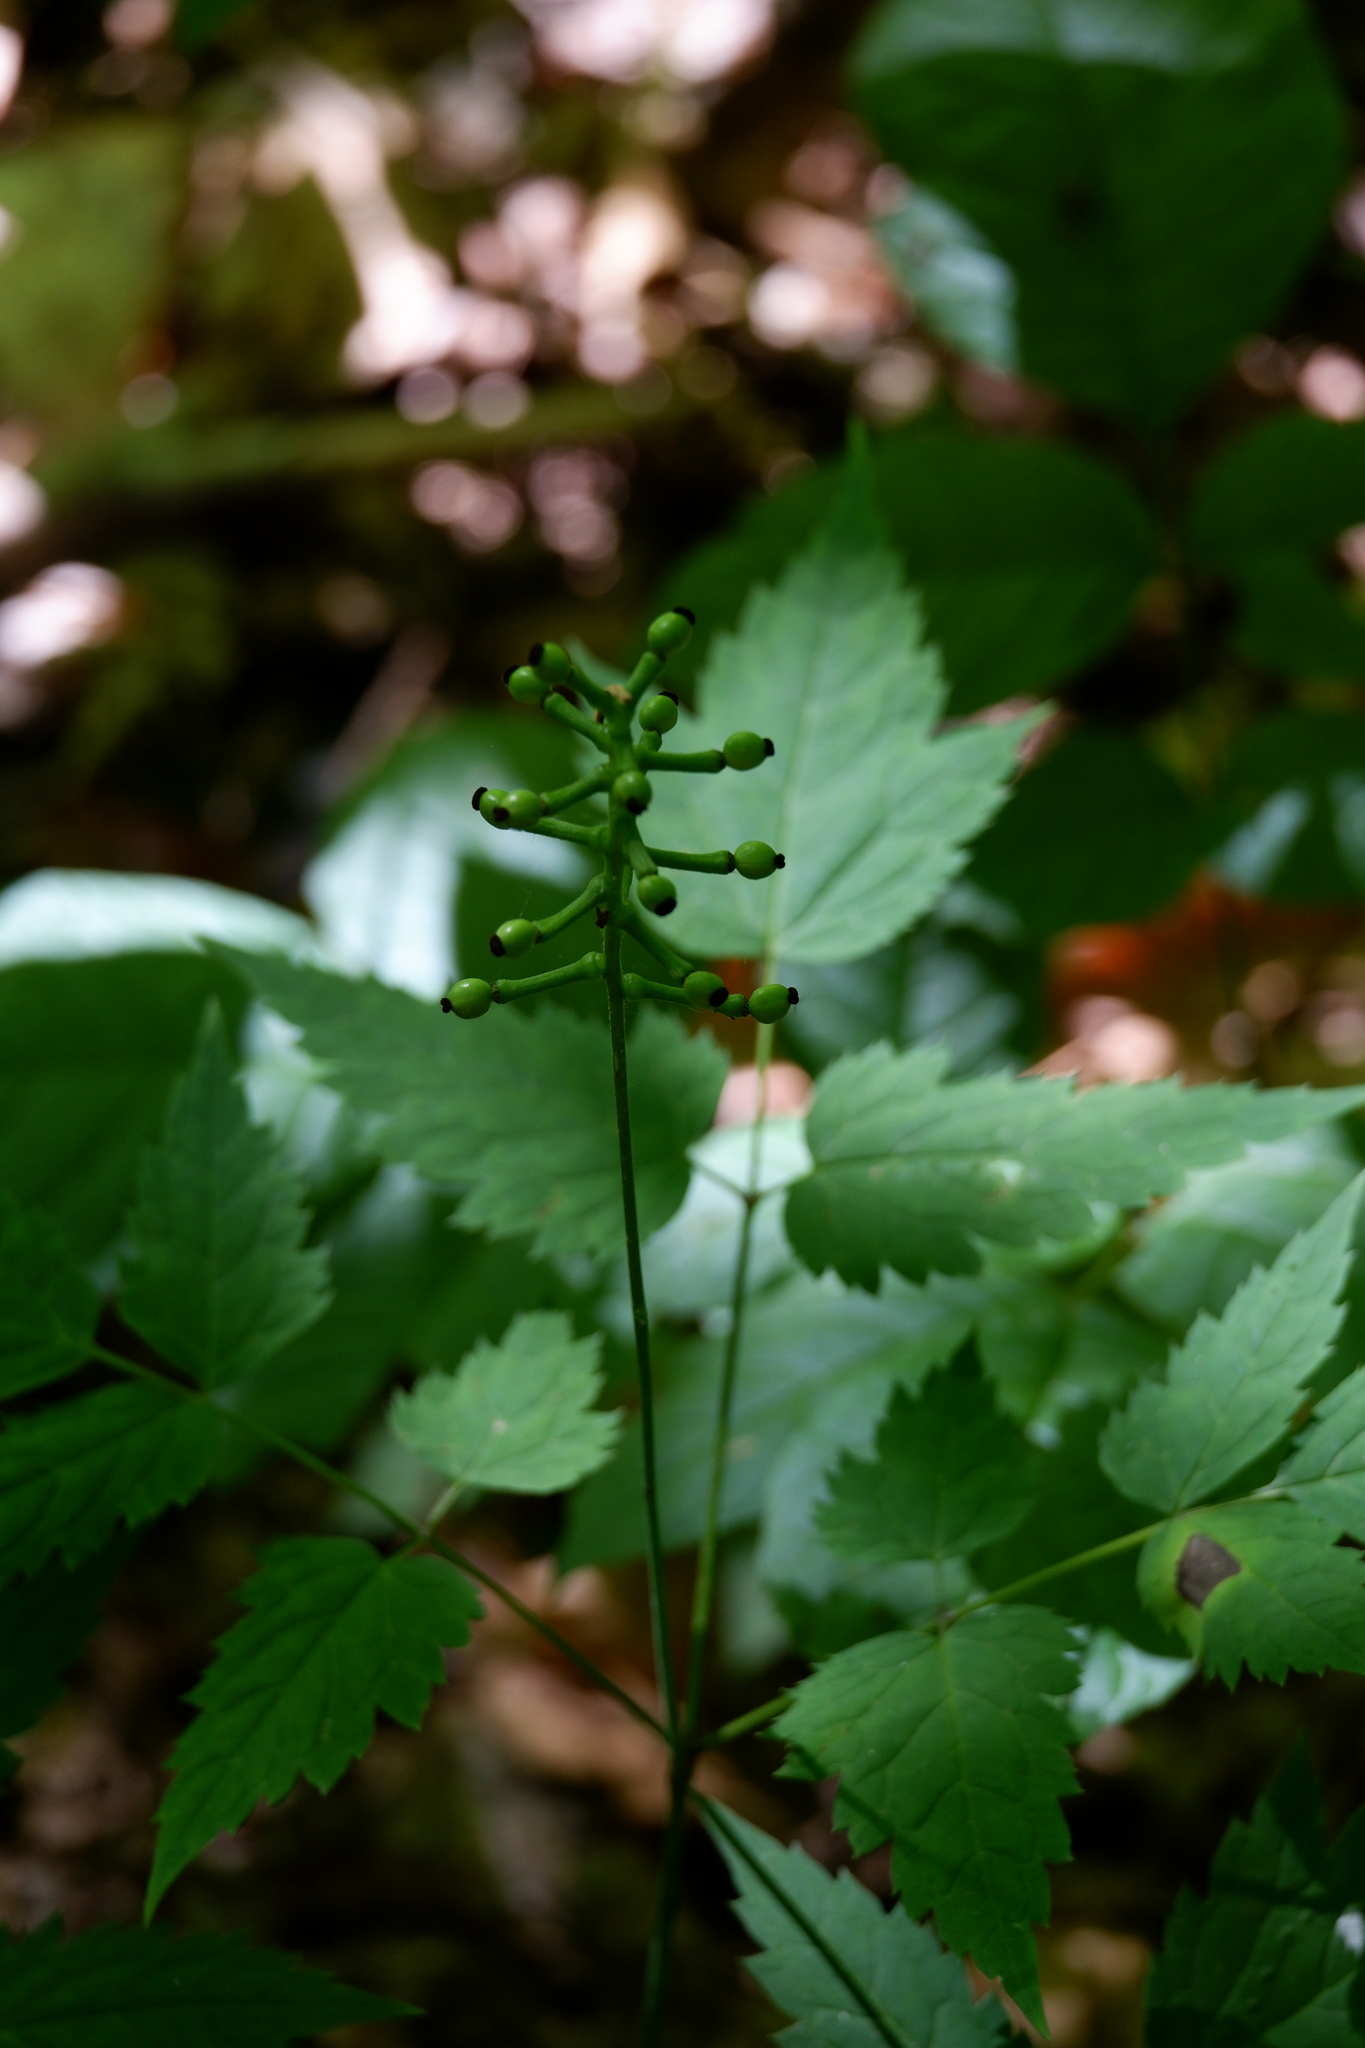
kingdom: Plantae
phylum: Tracheophyta
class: Magnoliopsida
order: Ranunculales
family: Ranunculaceae
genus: Actaea
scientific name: Actaea pachypoda
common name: Doll's-eyes
